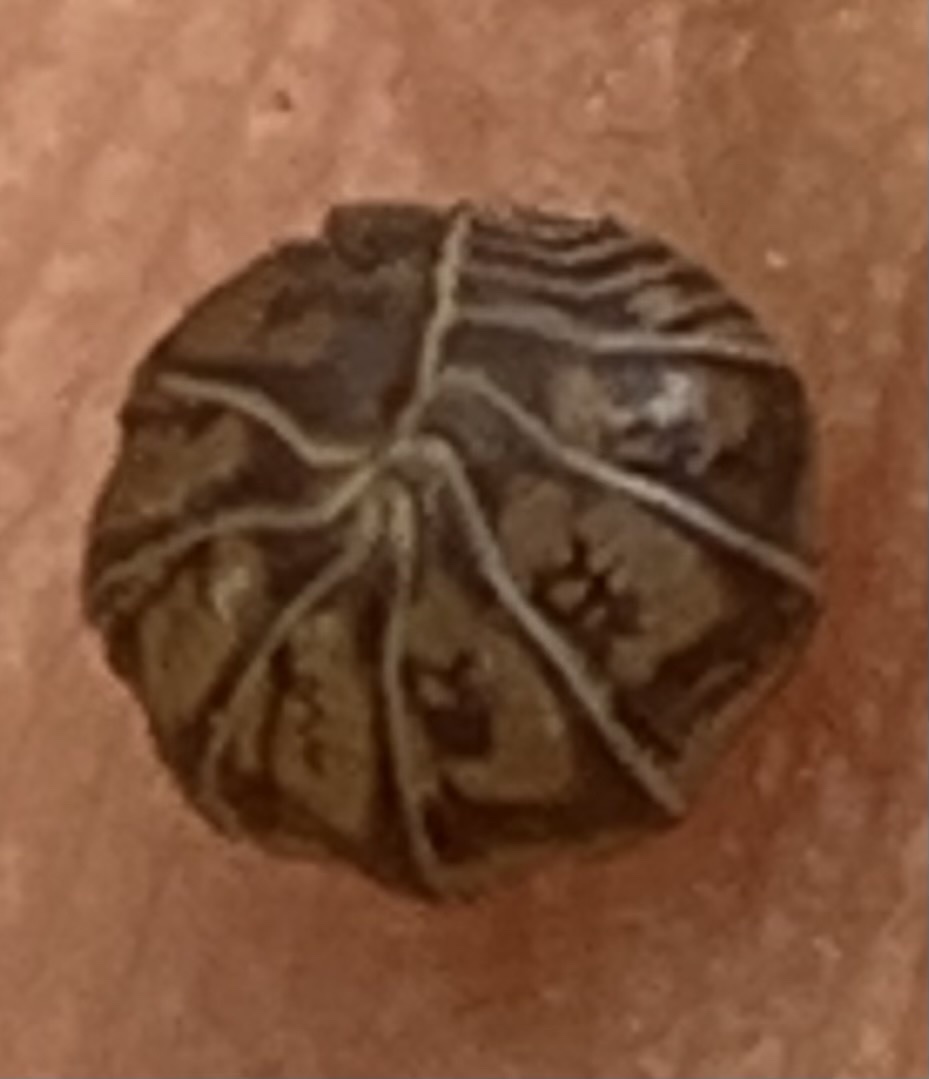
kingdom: Animalia
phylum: Arthropoda
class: Malacostraca
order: Isopoda
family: Armadillidae
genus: Venezillo
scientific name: Venezillo parvus
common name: Pillbug
